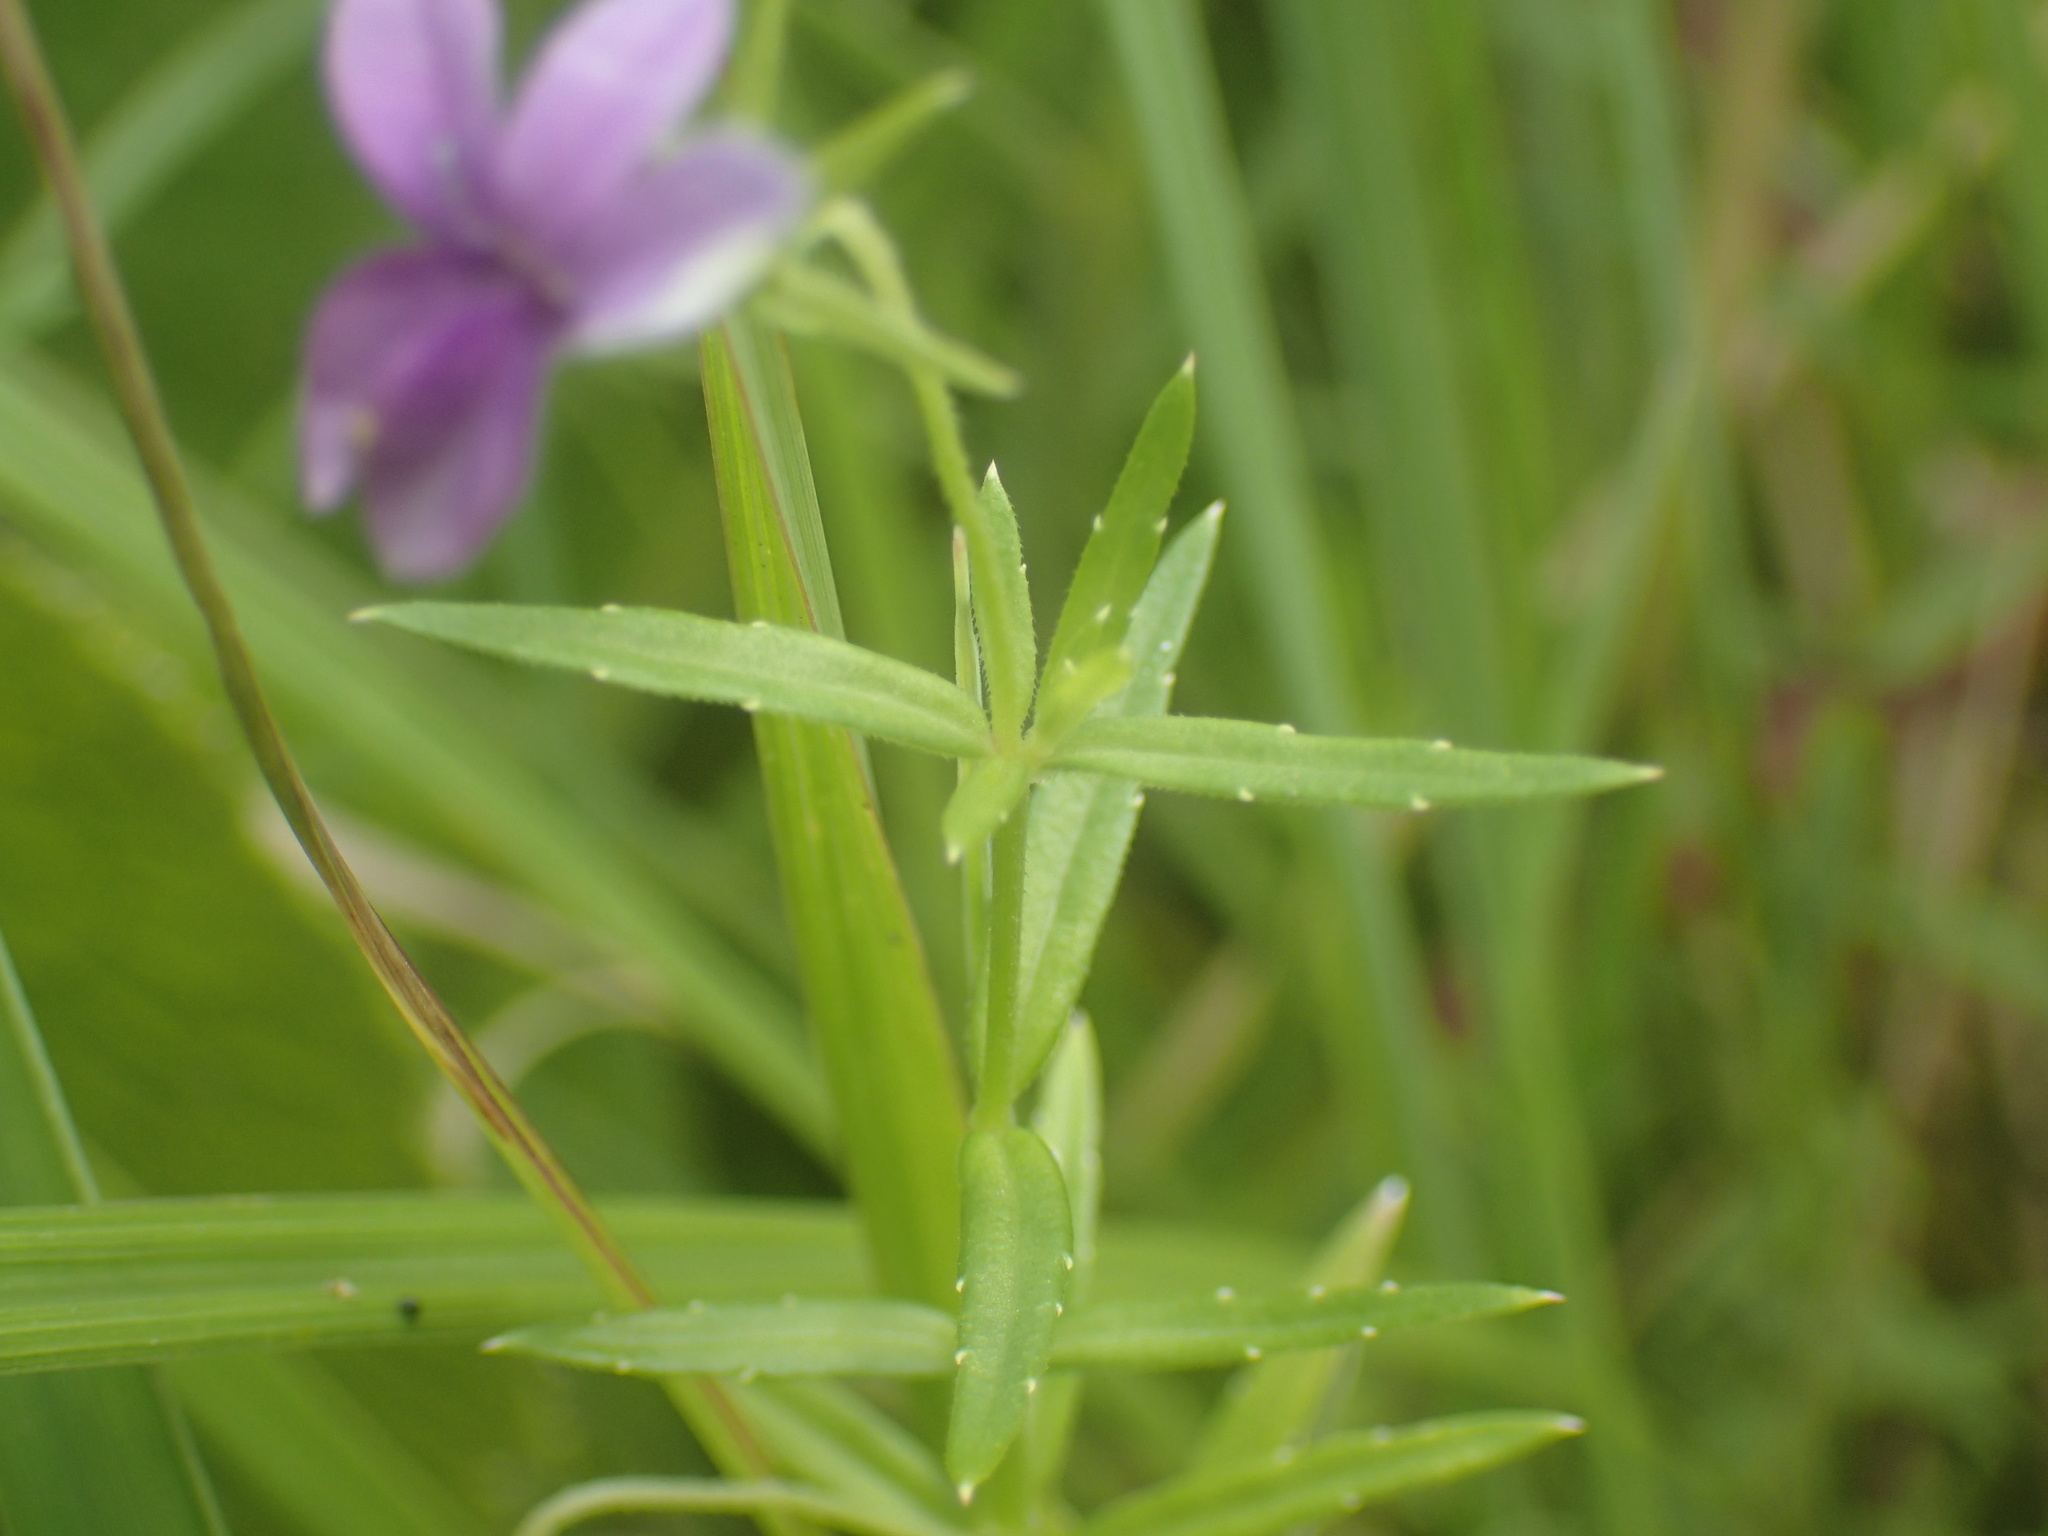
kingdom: Plantae
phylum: Tracheophyta
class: Magnoliopsida
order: Asterales
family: Campanulaceae
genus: Monopsis
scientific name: Monopsis stellarioides
